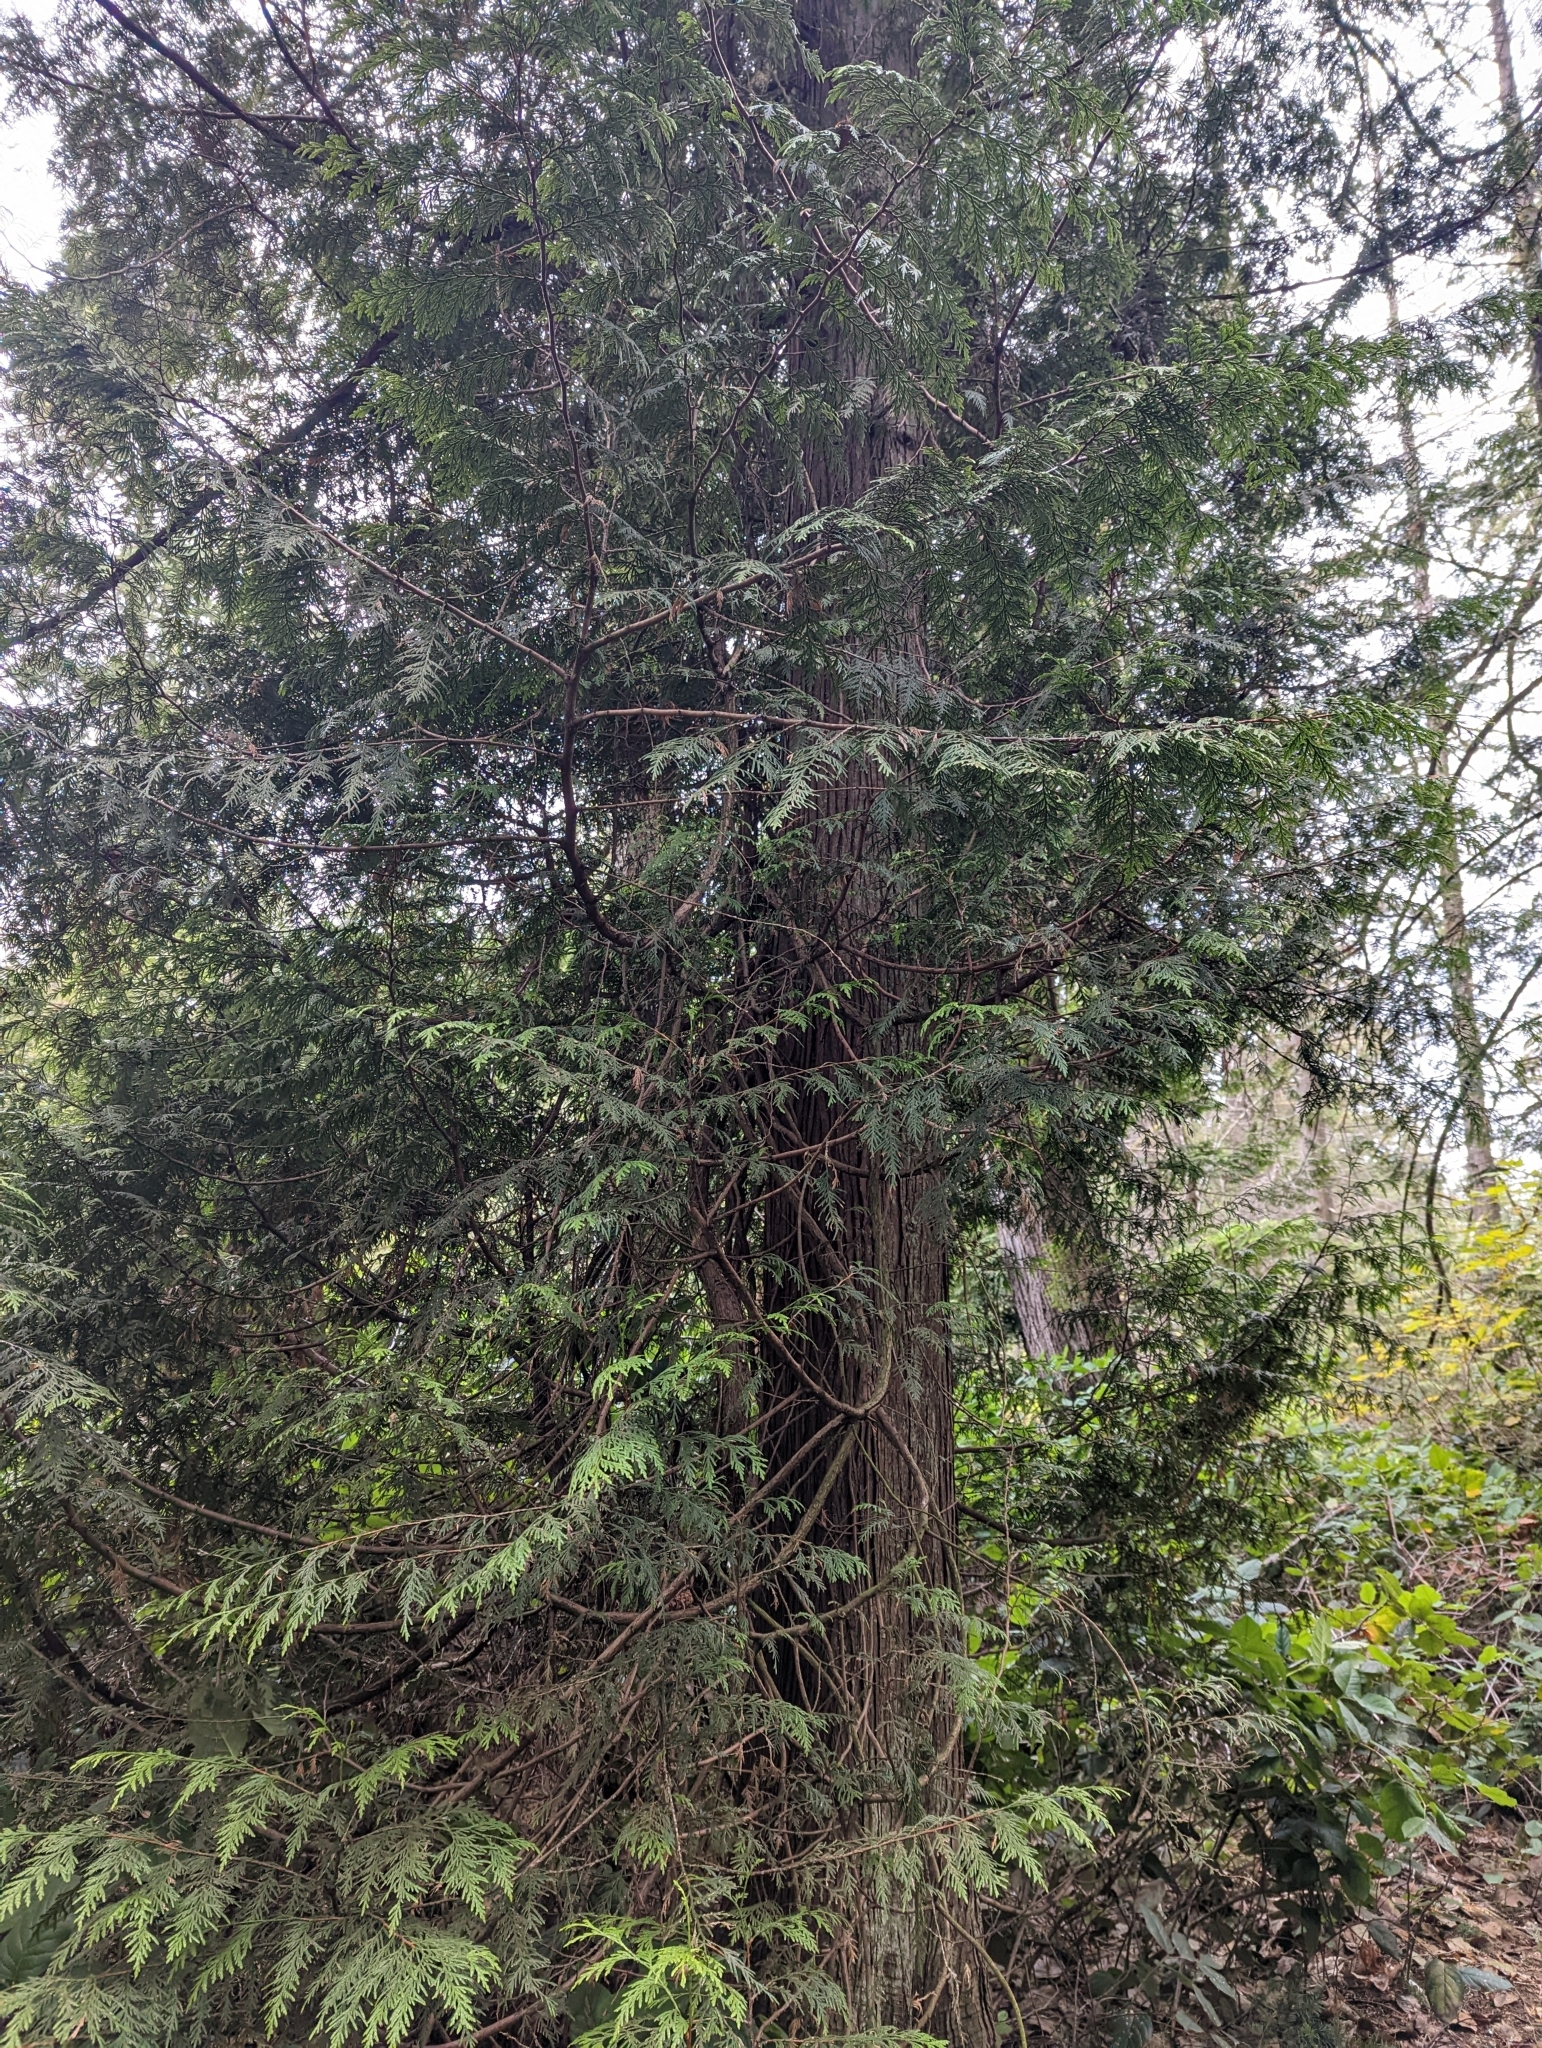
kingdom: Plantae
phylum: Tracheophyta
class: Pinopsida
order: Pinales
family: Cupressaceae
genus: Thuja
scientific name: Thuja plicata
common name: Western red-cedar
